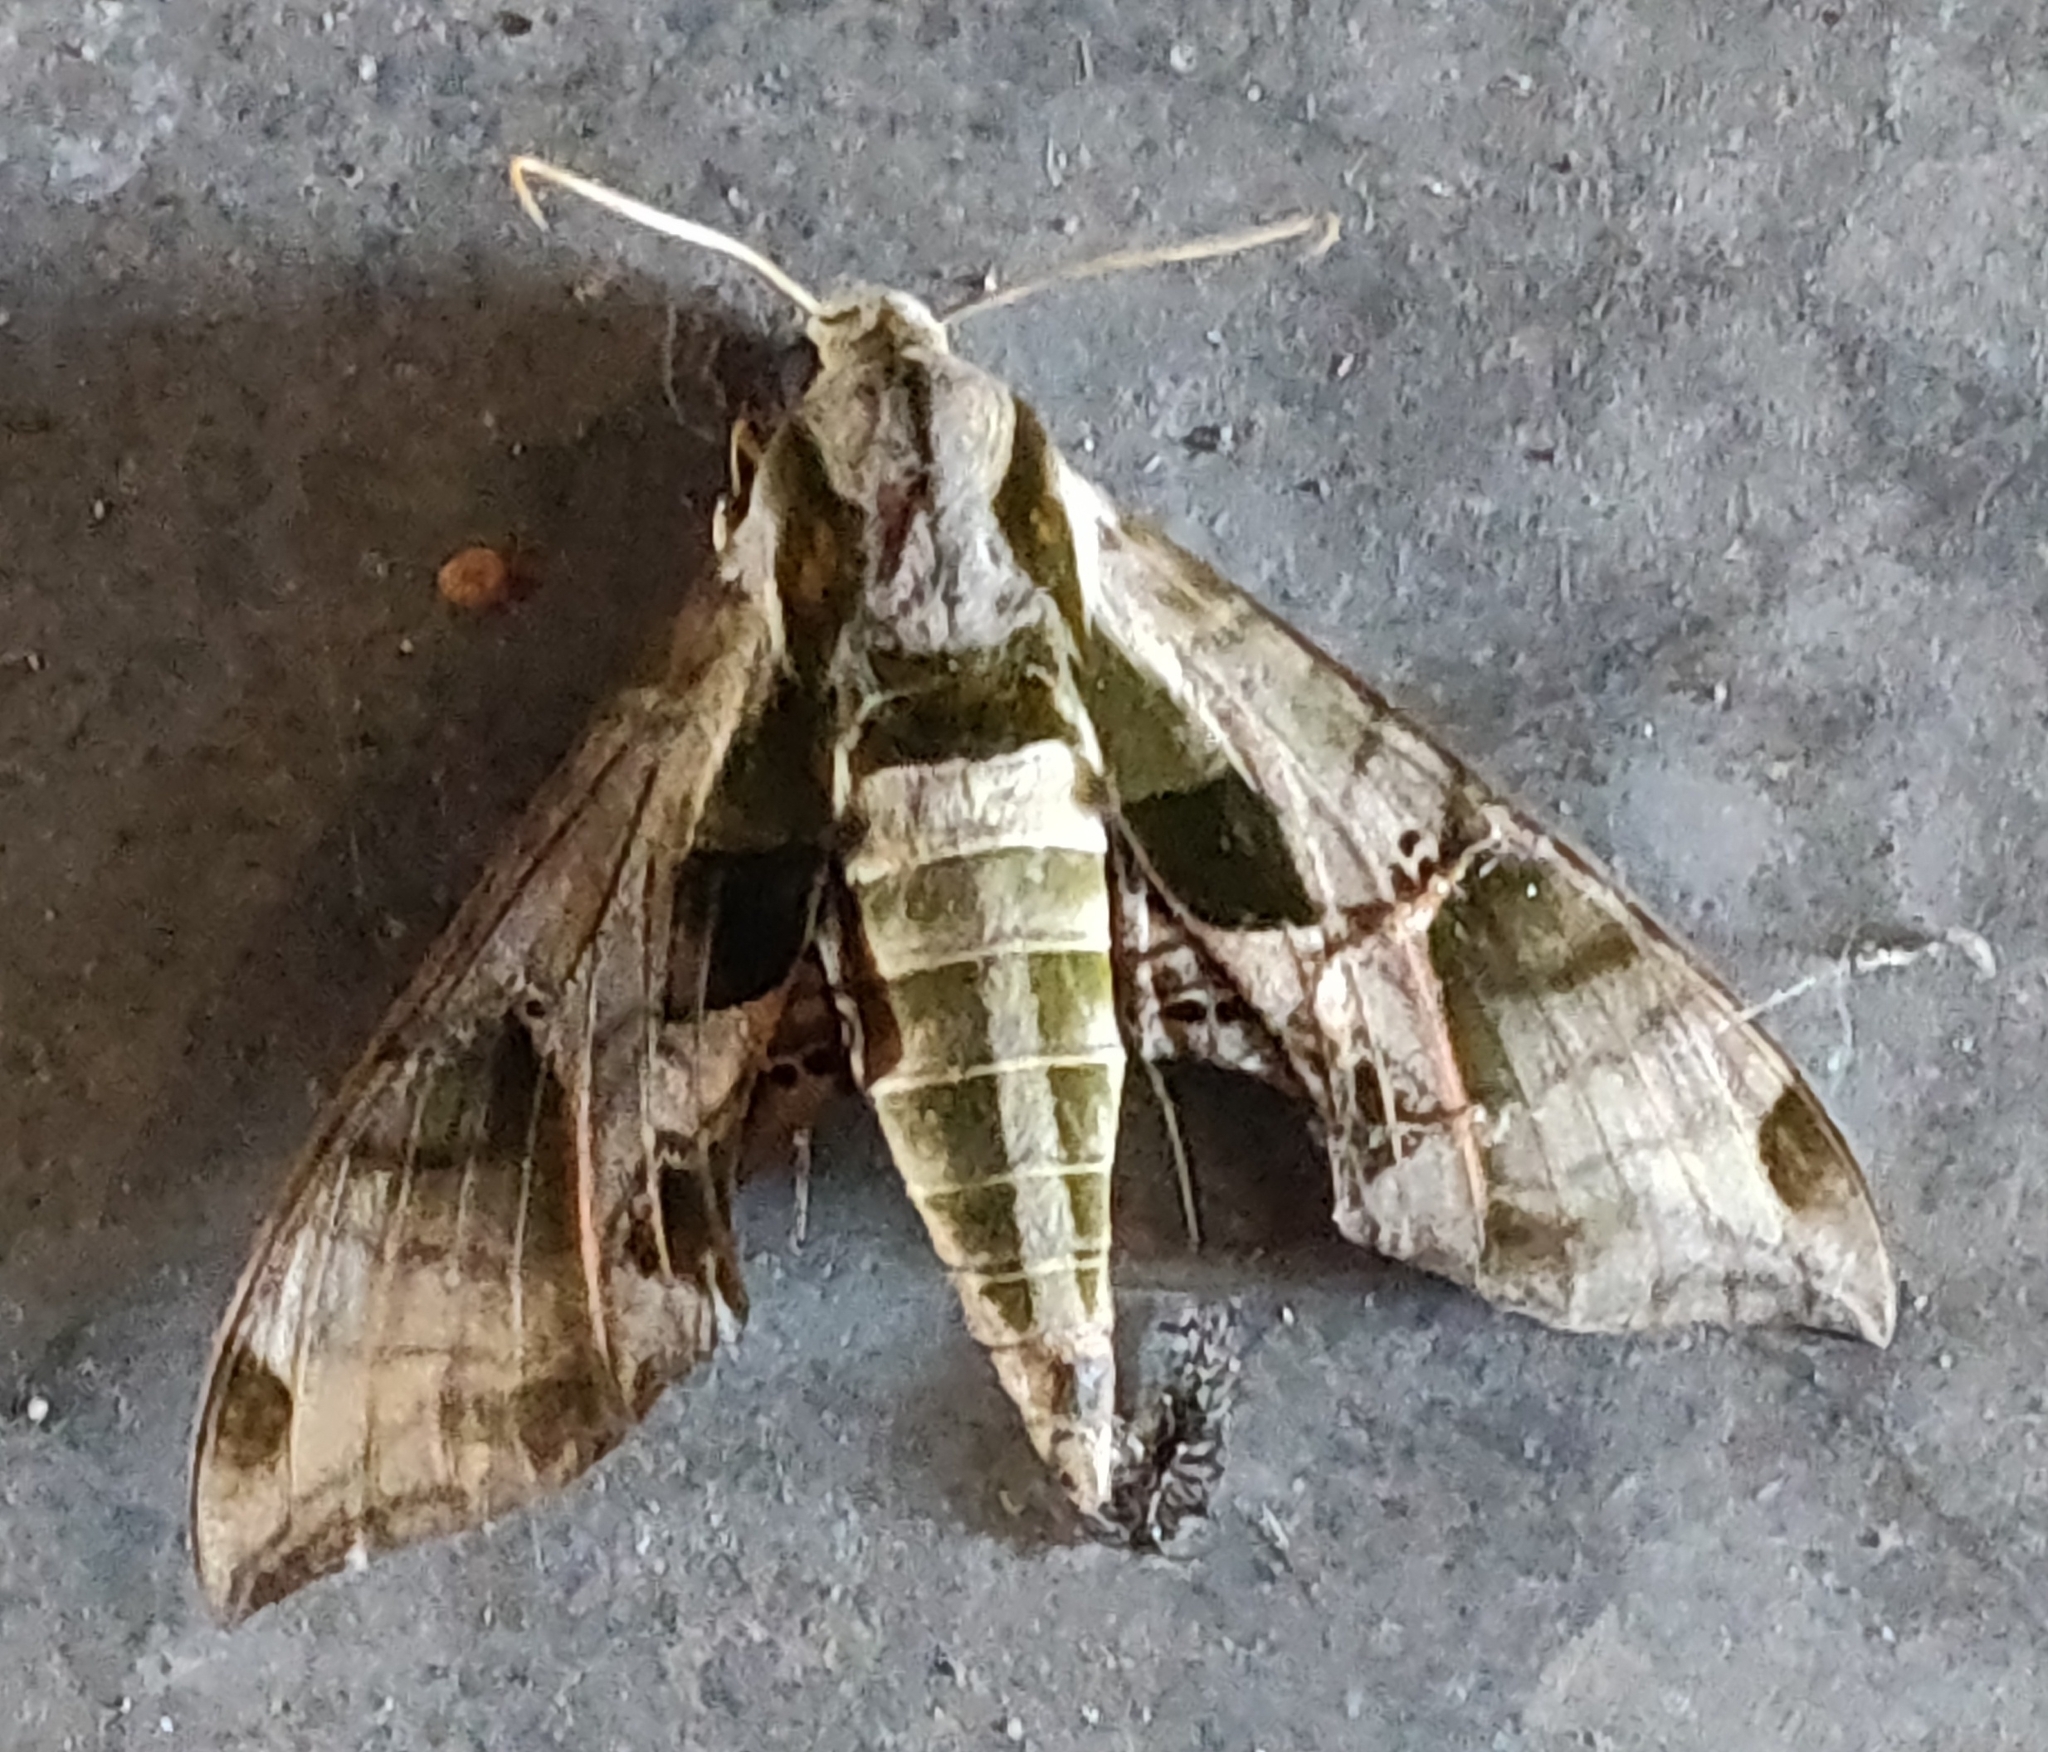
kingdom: Animalia
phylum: Arthropoda
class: Insecta
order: Lepidoptera
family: Sphingidae
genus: Eumorpha
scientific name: Eumorpha pandorus
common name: Pandora sphinx
